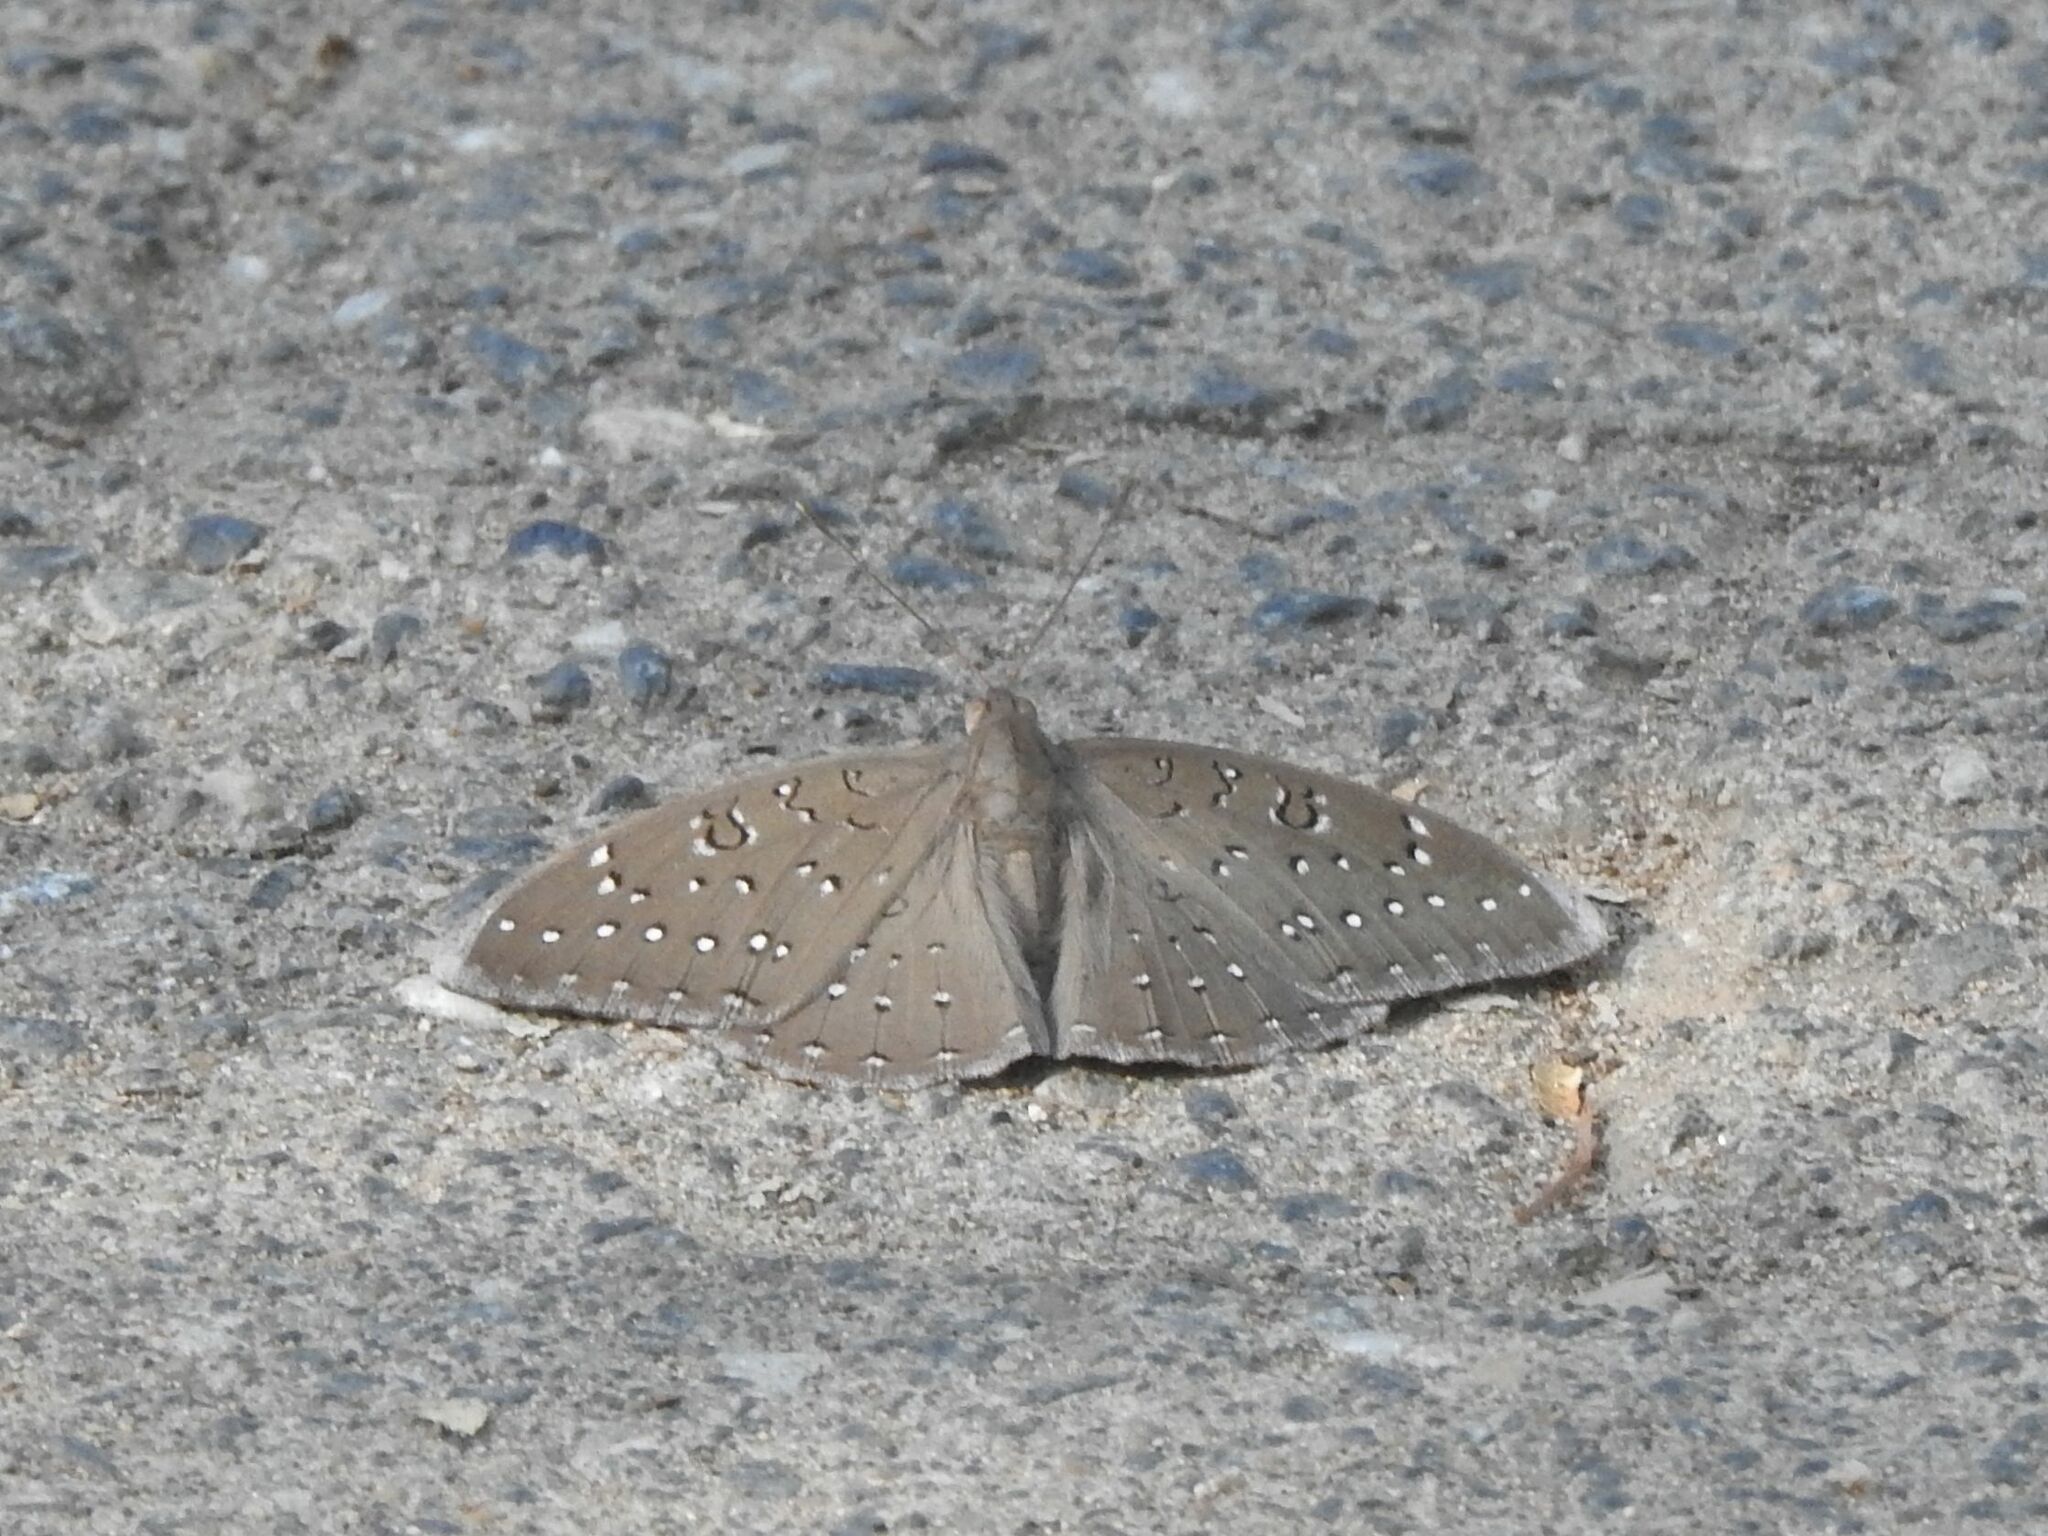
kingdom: Animalia
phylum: Arthropoda
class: Insecta
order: Lepidoptera
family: Nymphalidae
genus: Hamanumida
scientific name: Hamanumida daedalus
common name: Guinea-fowl butterfly
